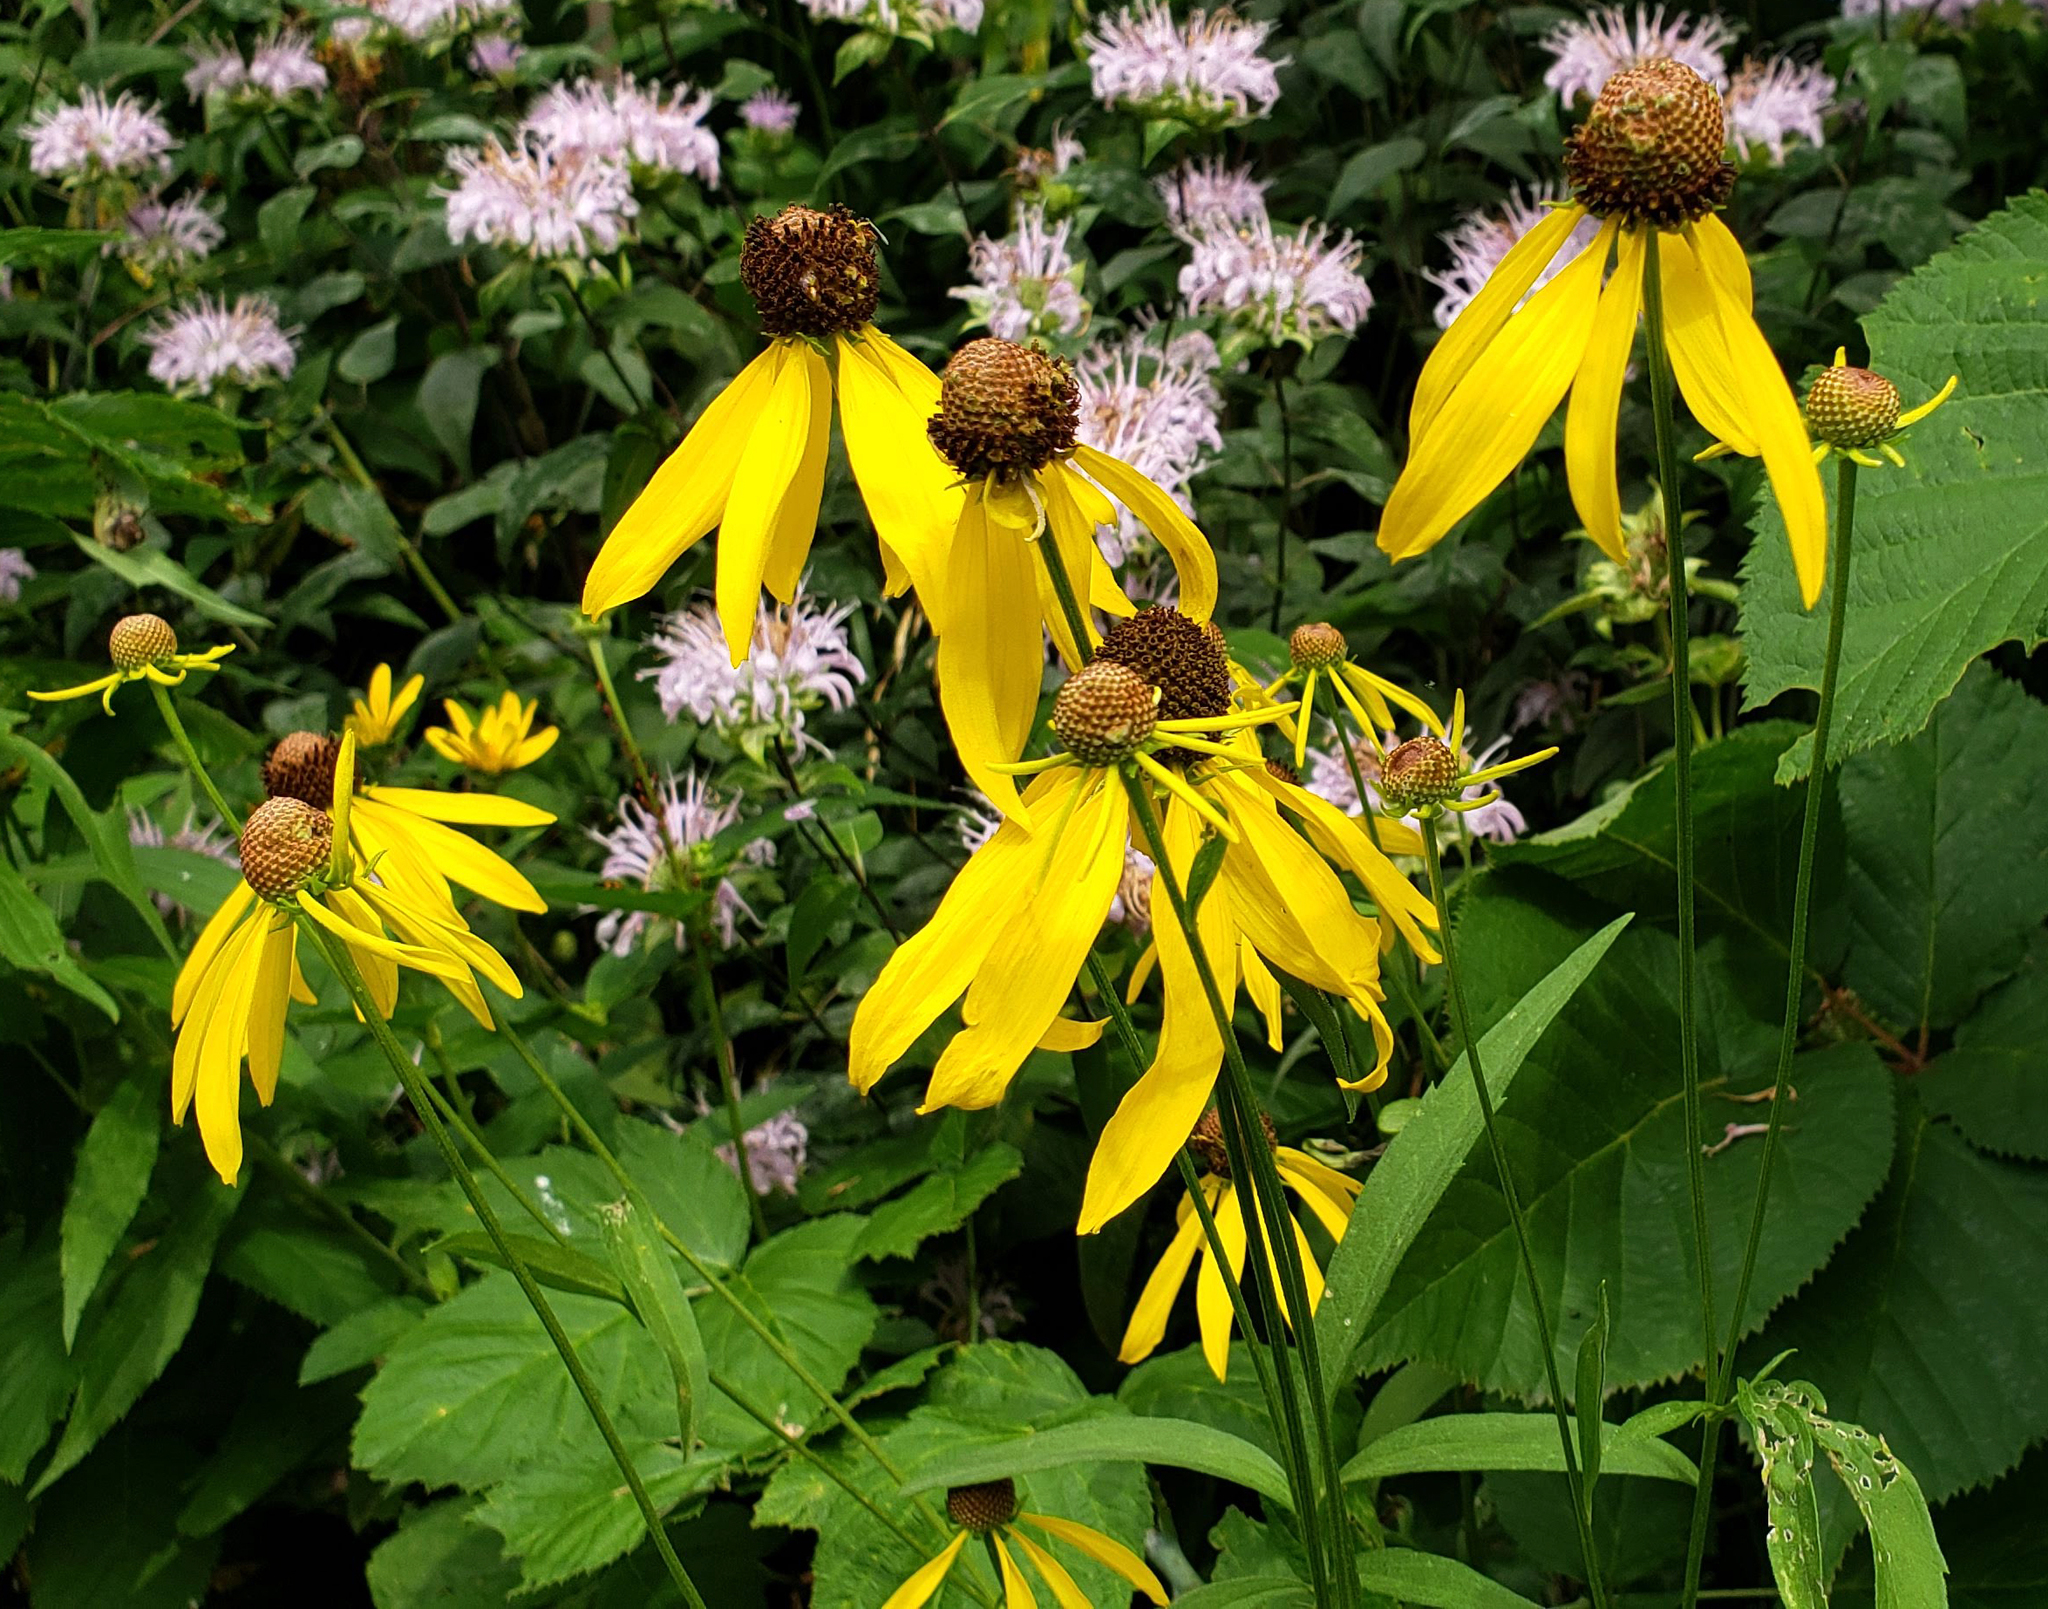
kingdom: Plantae
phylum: Tracheophyta
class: Magnoliopsida
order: Asterales
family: Asteraceae
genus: Ratibida
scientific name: Ratibida pinnata
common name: Drooping prairie-coneflower
